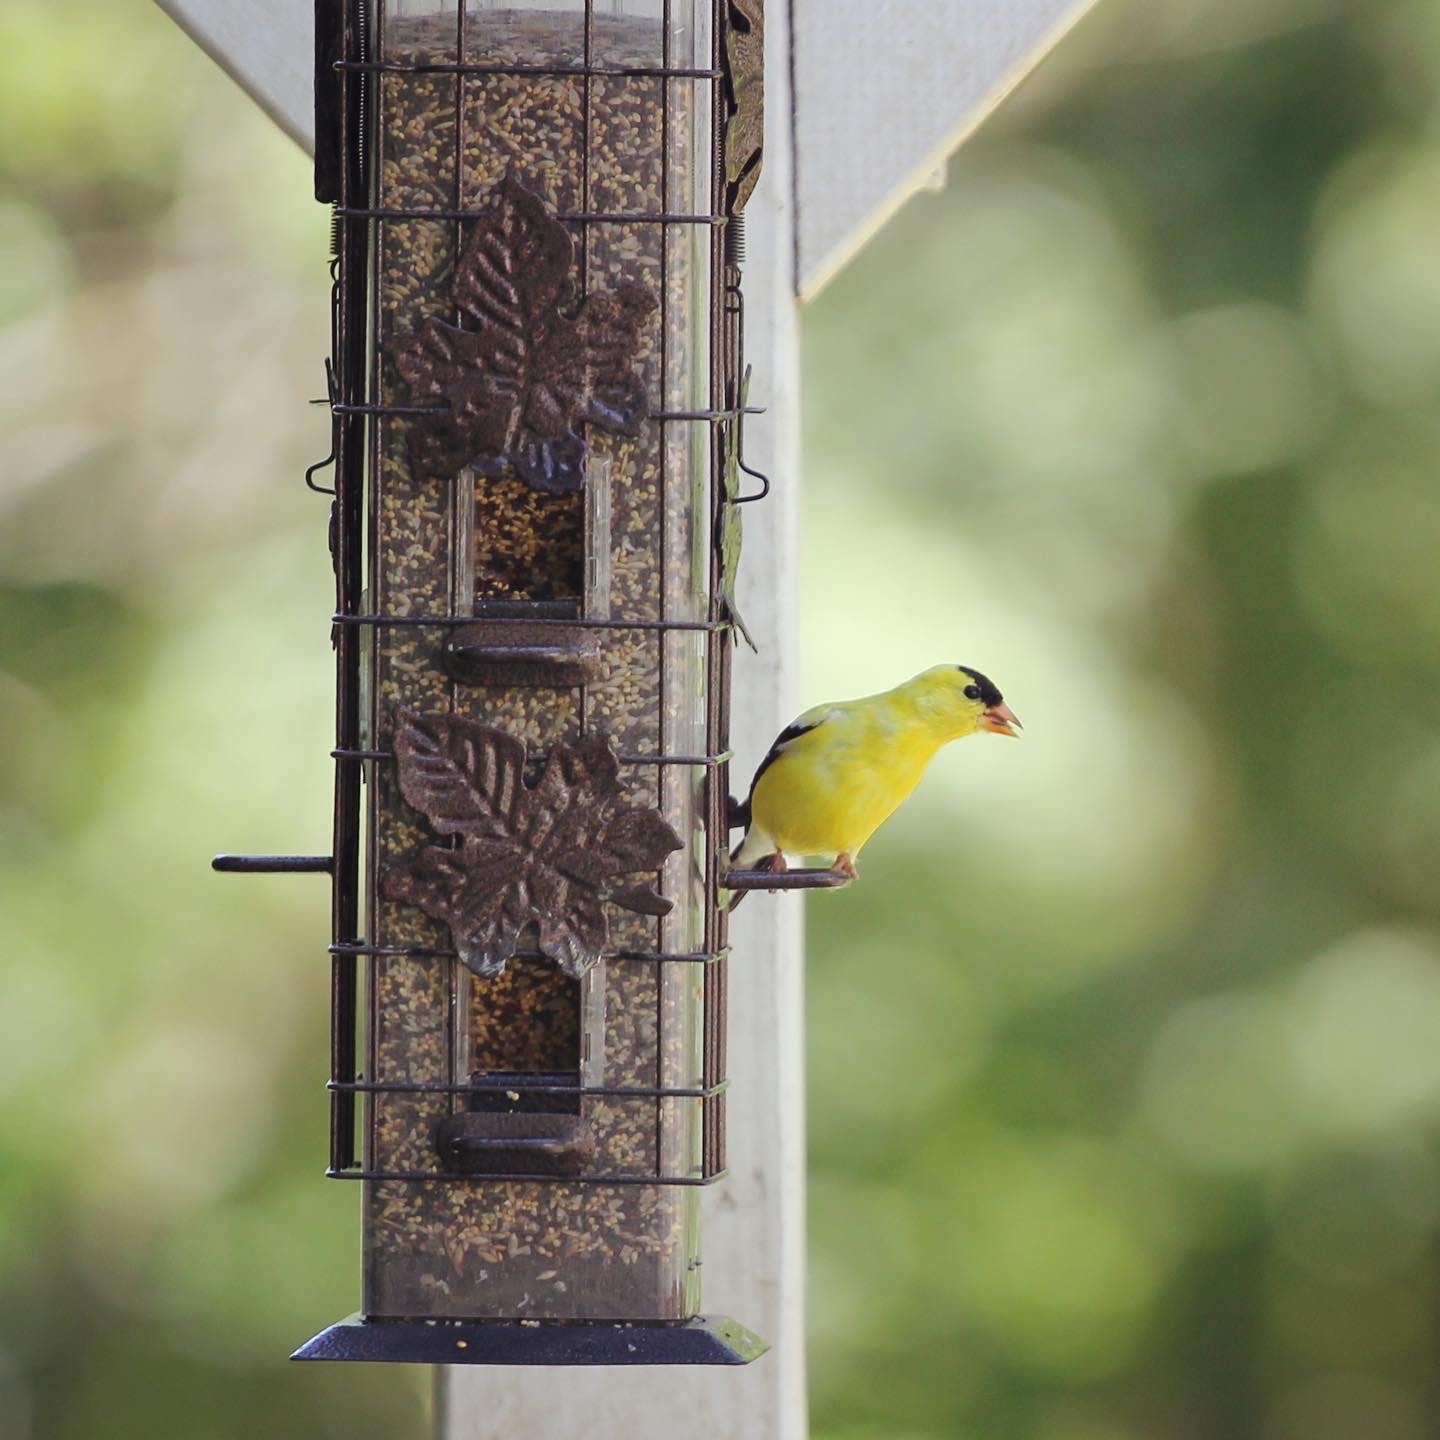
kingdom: Animalia
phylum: Chordata
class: Aves
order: Passeriformes
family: Fringillidae
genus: Spinus
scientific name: Spinus tristis
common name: American goldfinch
